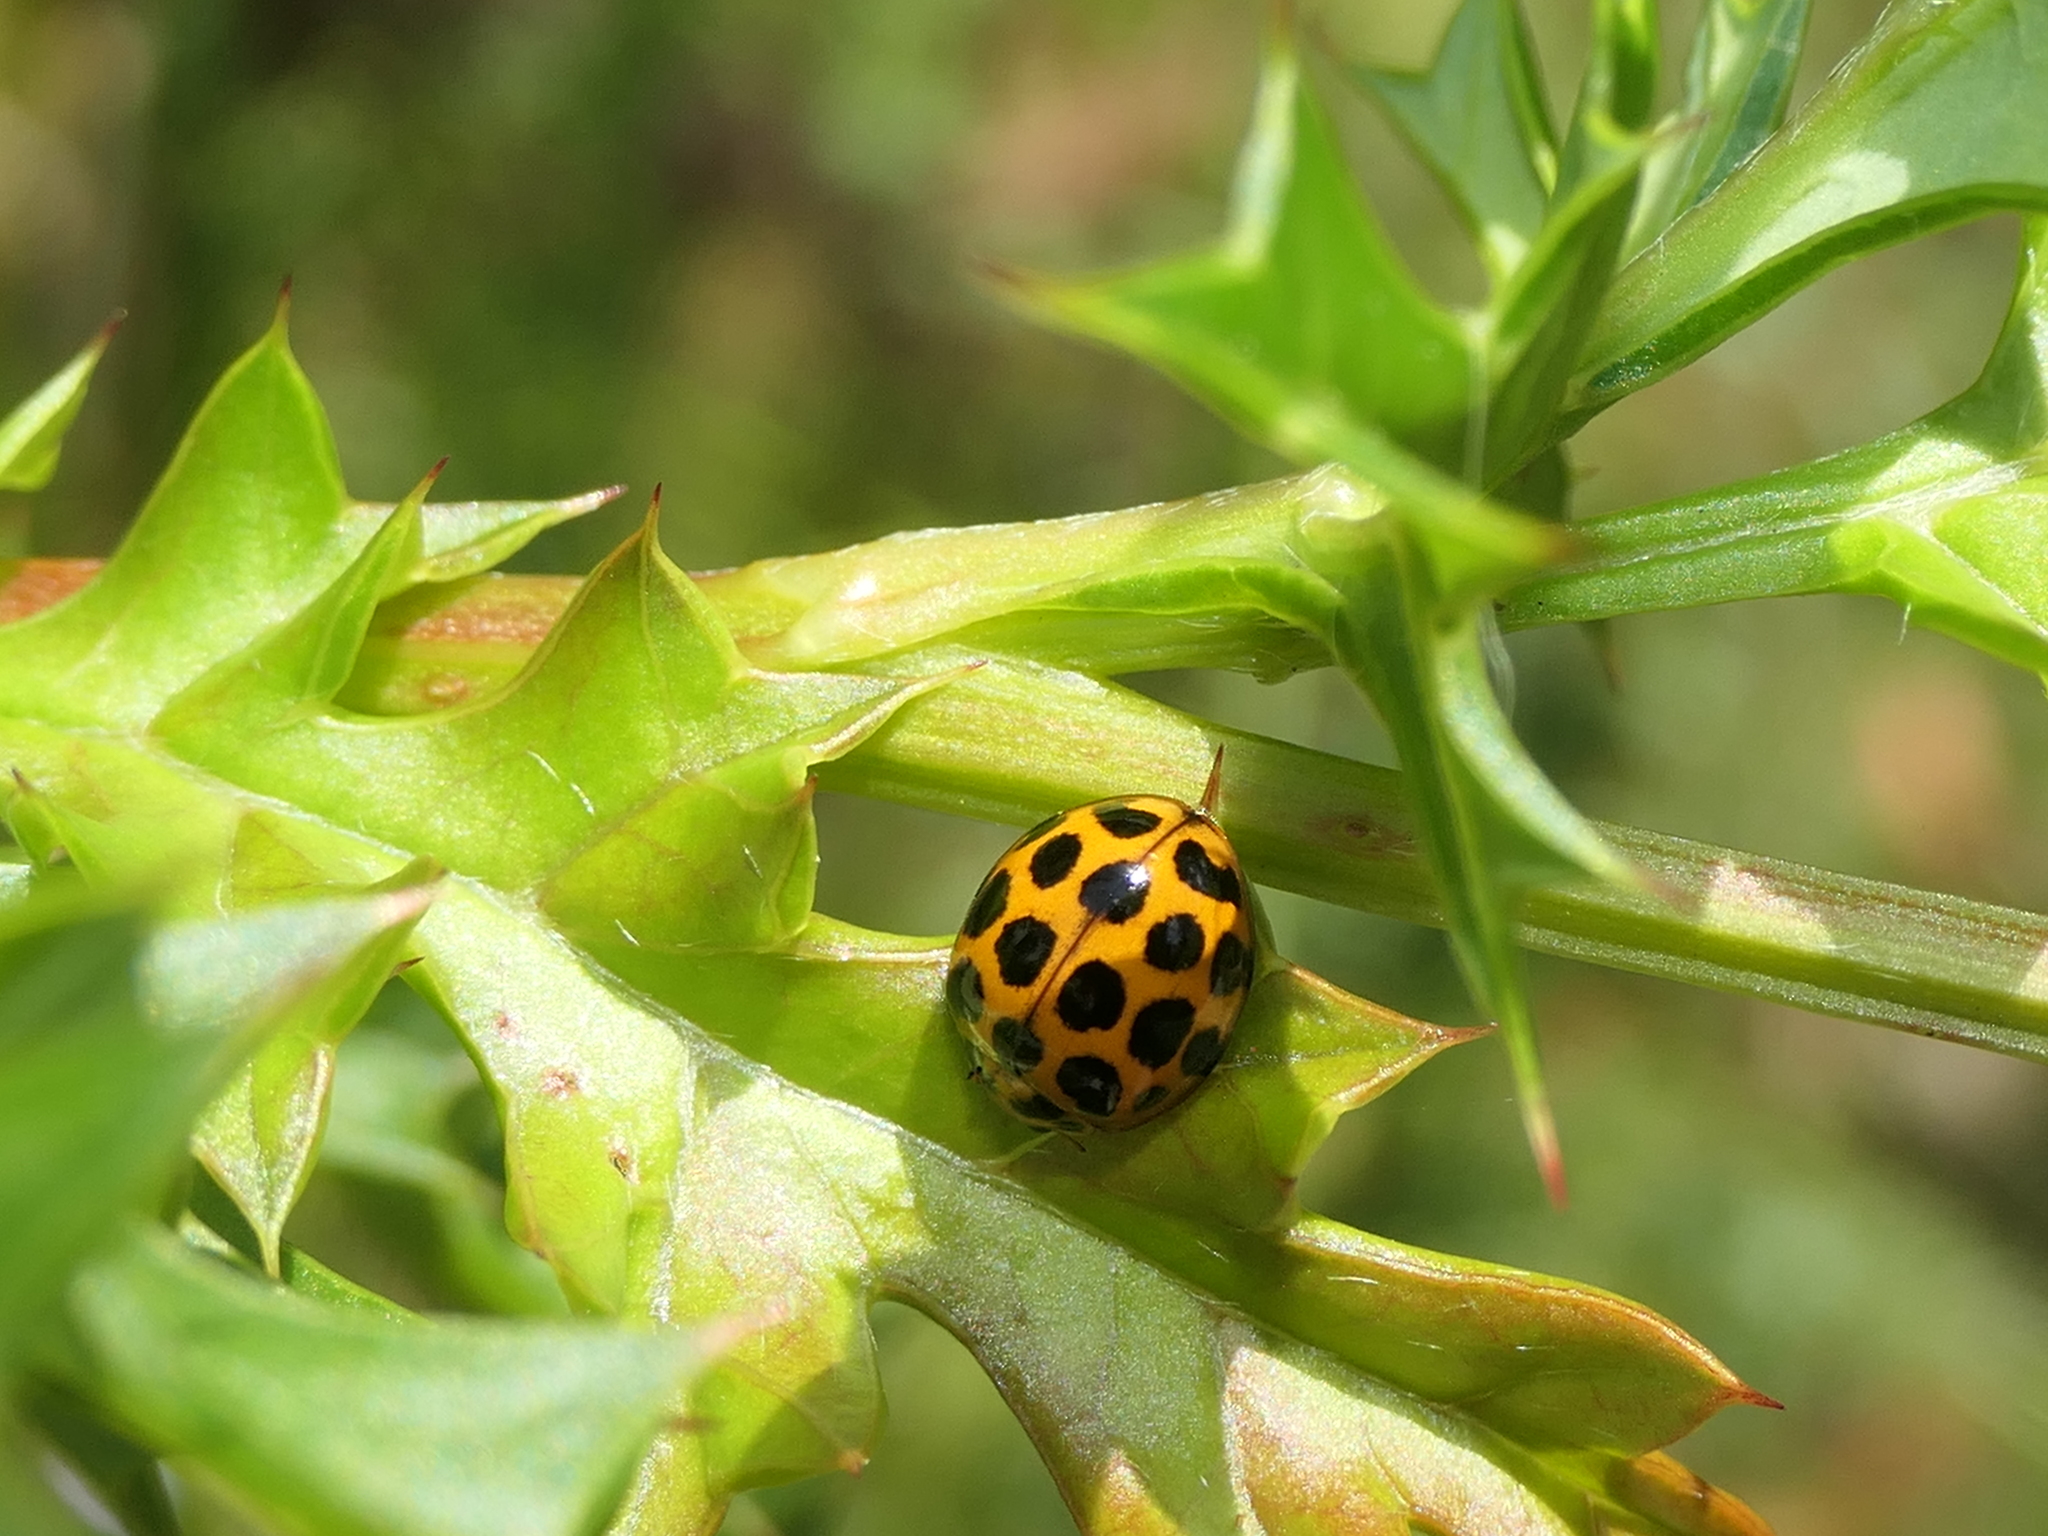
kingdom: Animalia
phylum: Arthropoda
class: Insecta
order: Coleoptera
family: Coccinellidae
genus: Harmonia
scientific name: Harmonia conformis
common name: Common spotted ladybird beetle
